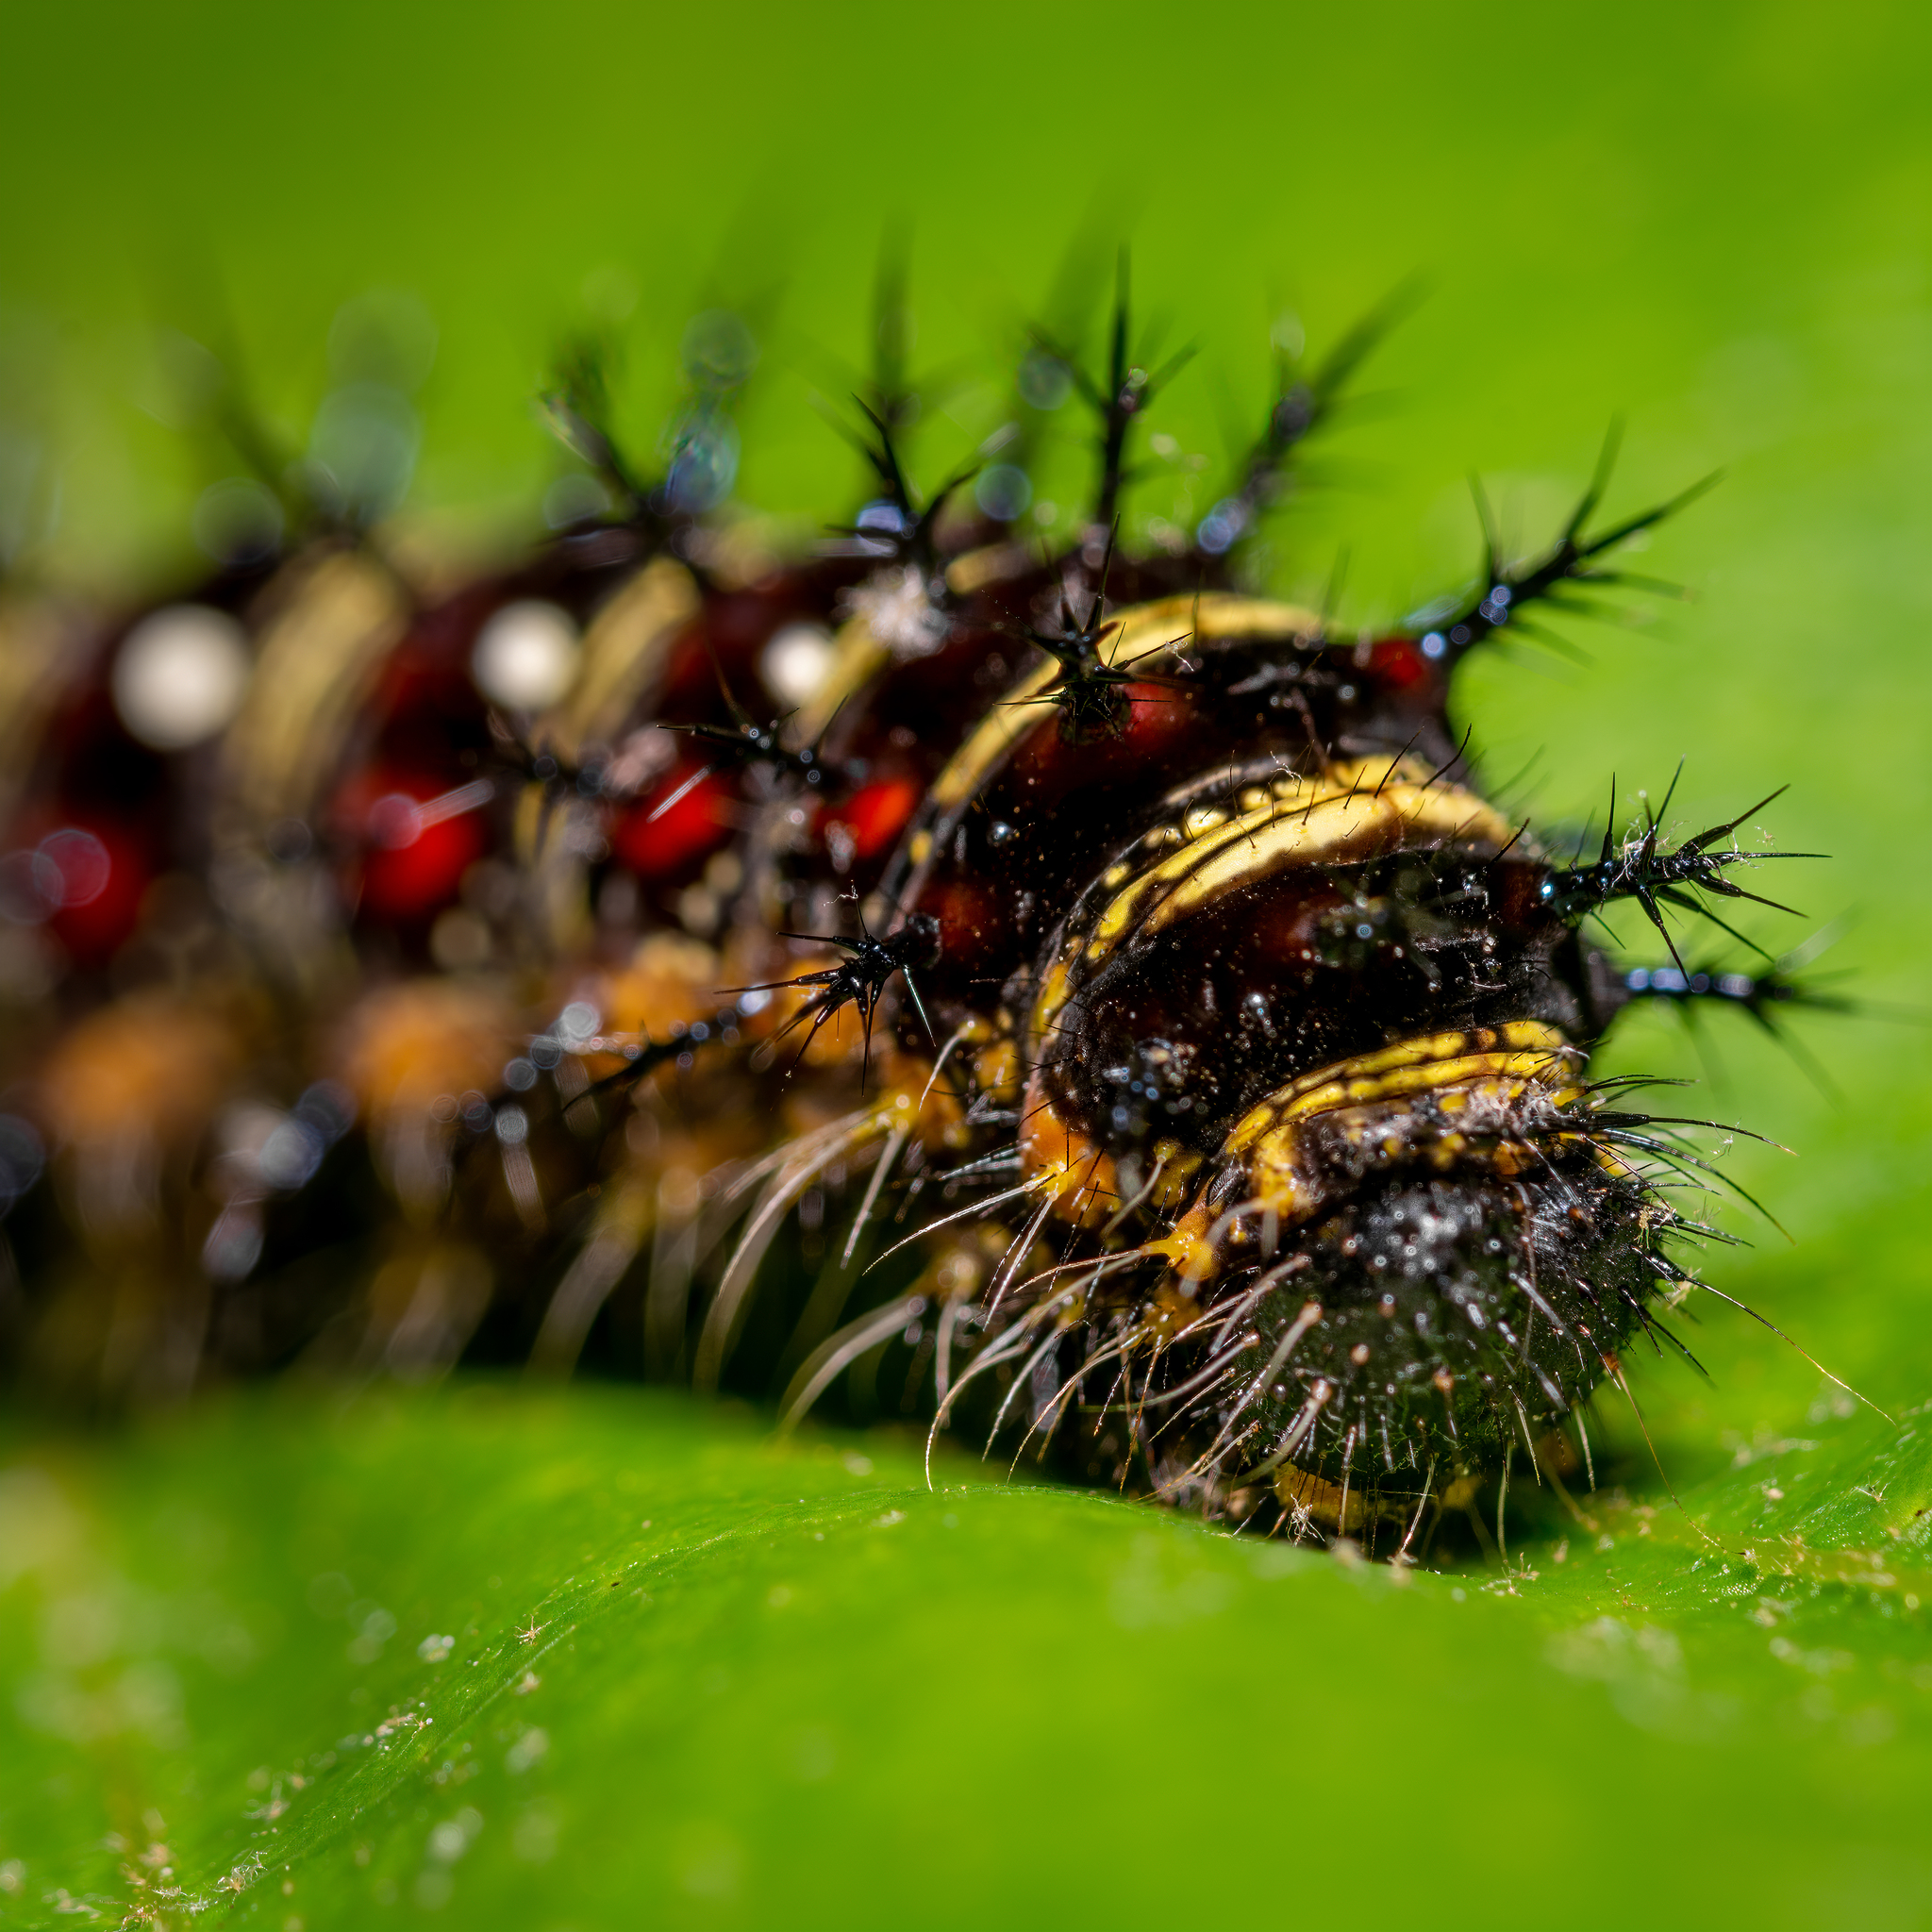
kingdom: Animalia
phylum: Arthropoda
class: Insecta
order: Lepidoptera
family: Nymphalidae
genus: Vanessa
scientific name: Vanessa virginiensis
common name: American lady
